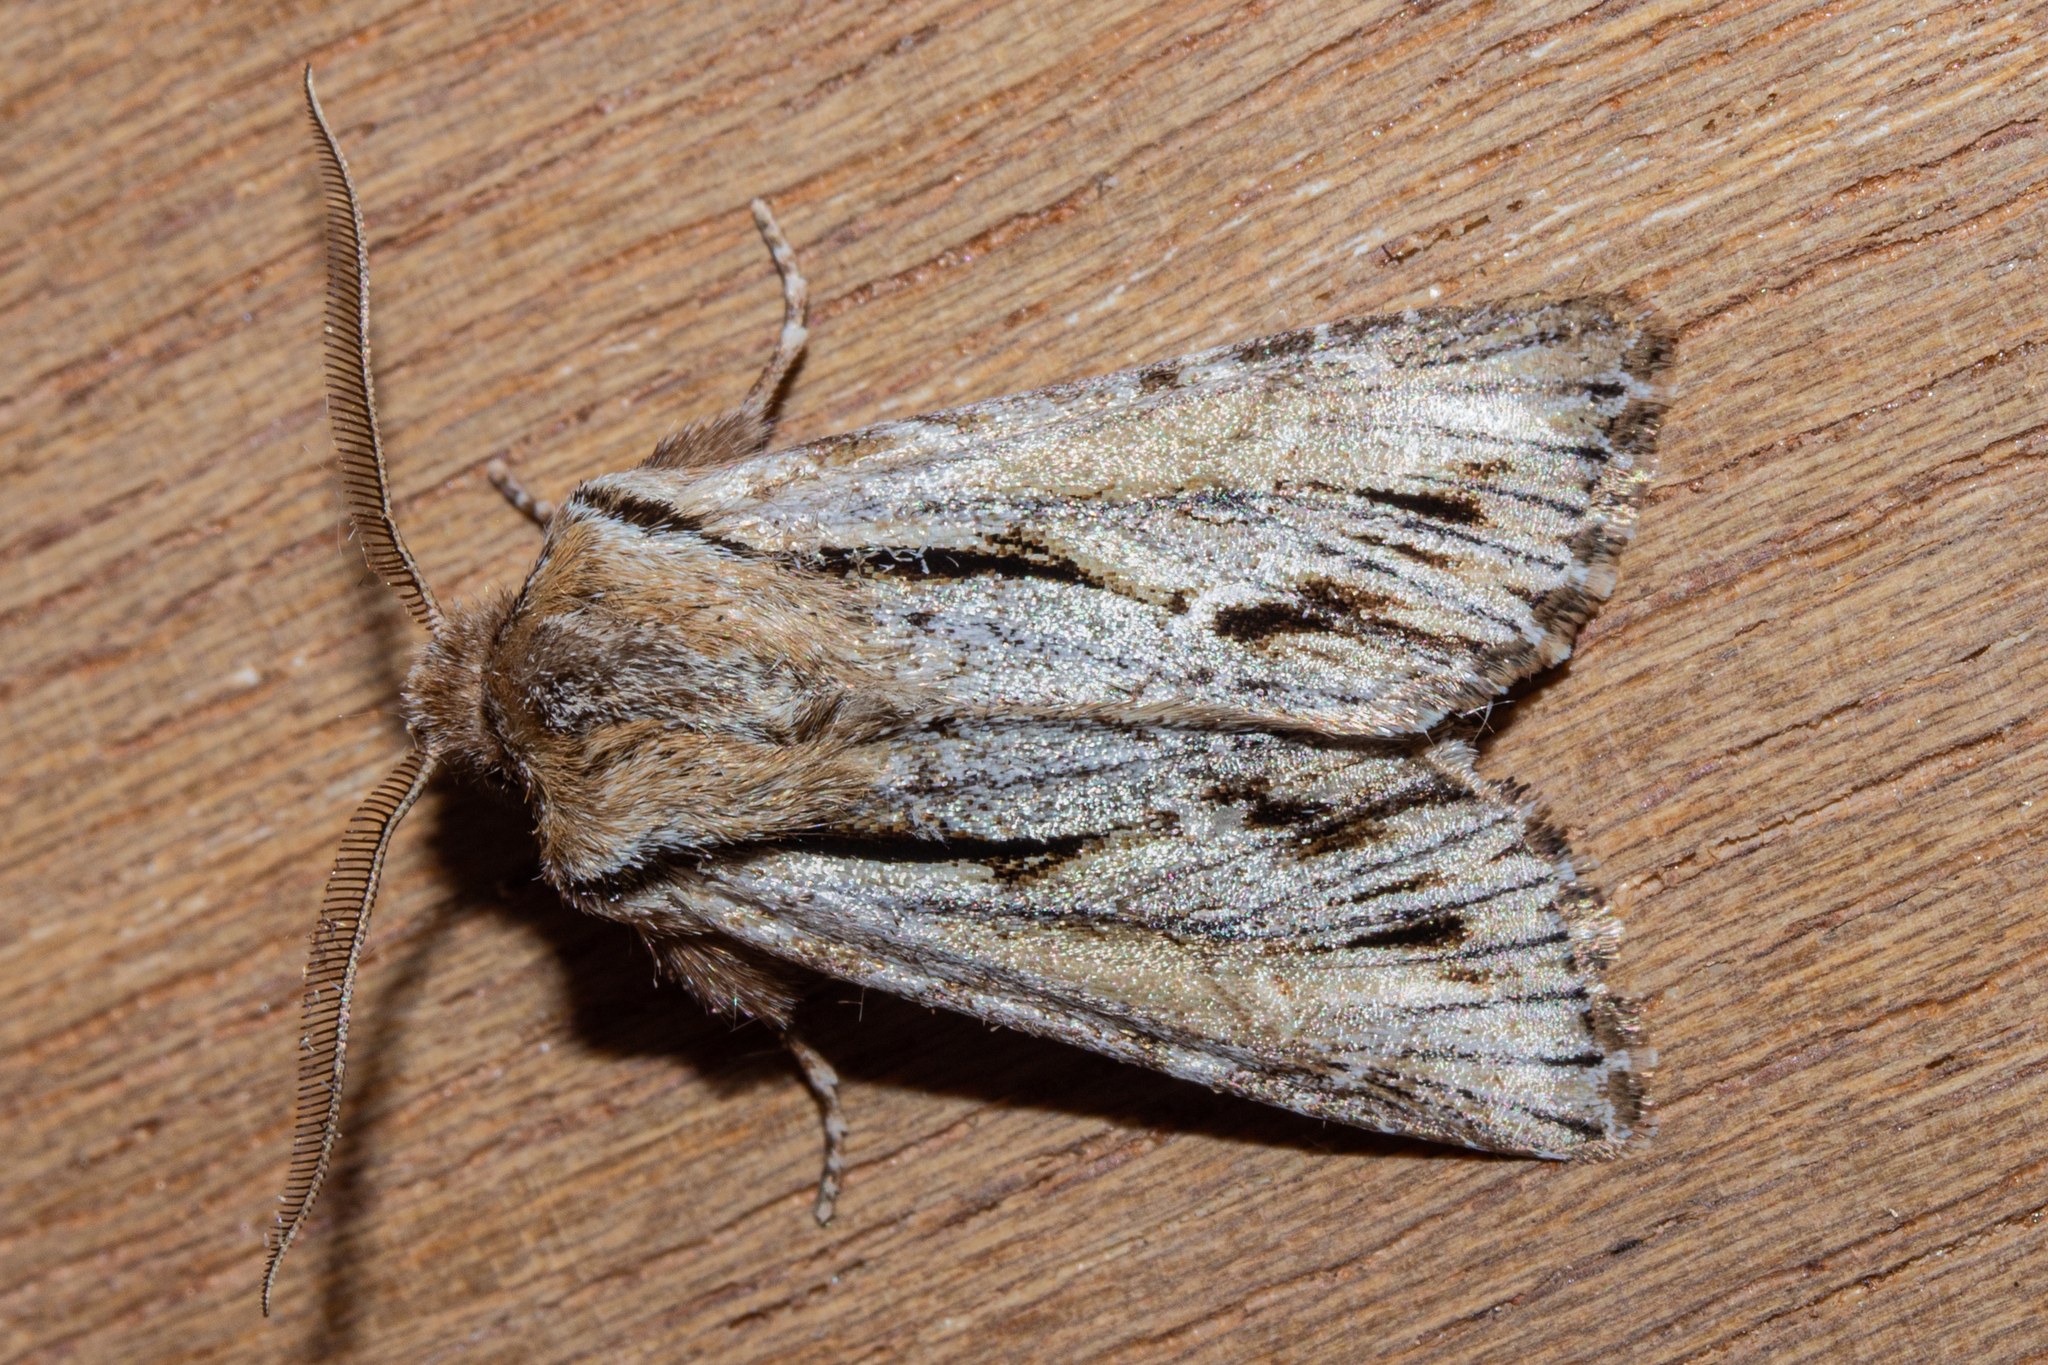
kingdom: Animalia
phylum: Arthropoda
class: Insecta
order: Lepidoptera
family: Noctuidae
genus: Ichneutica
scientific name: Ichneutica
